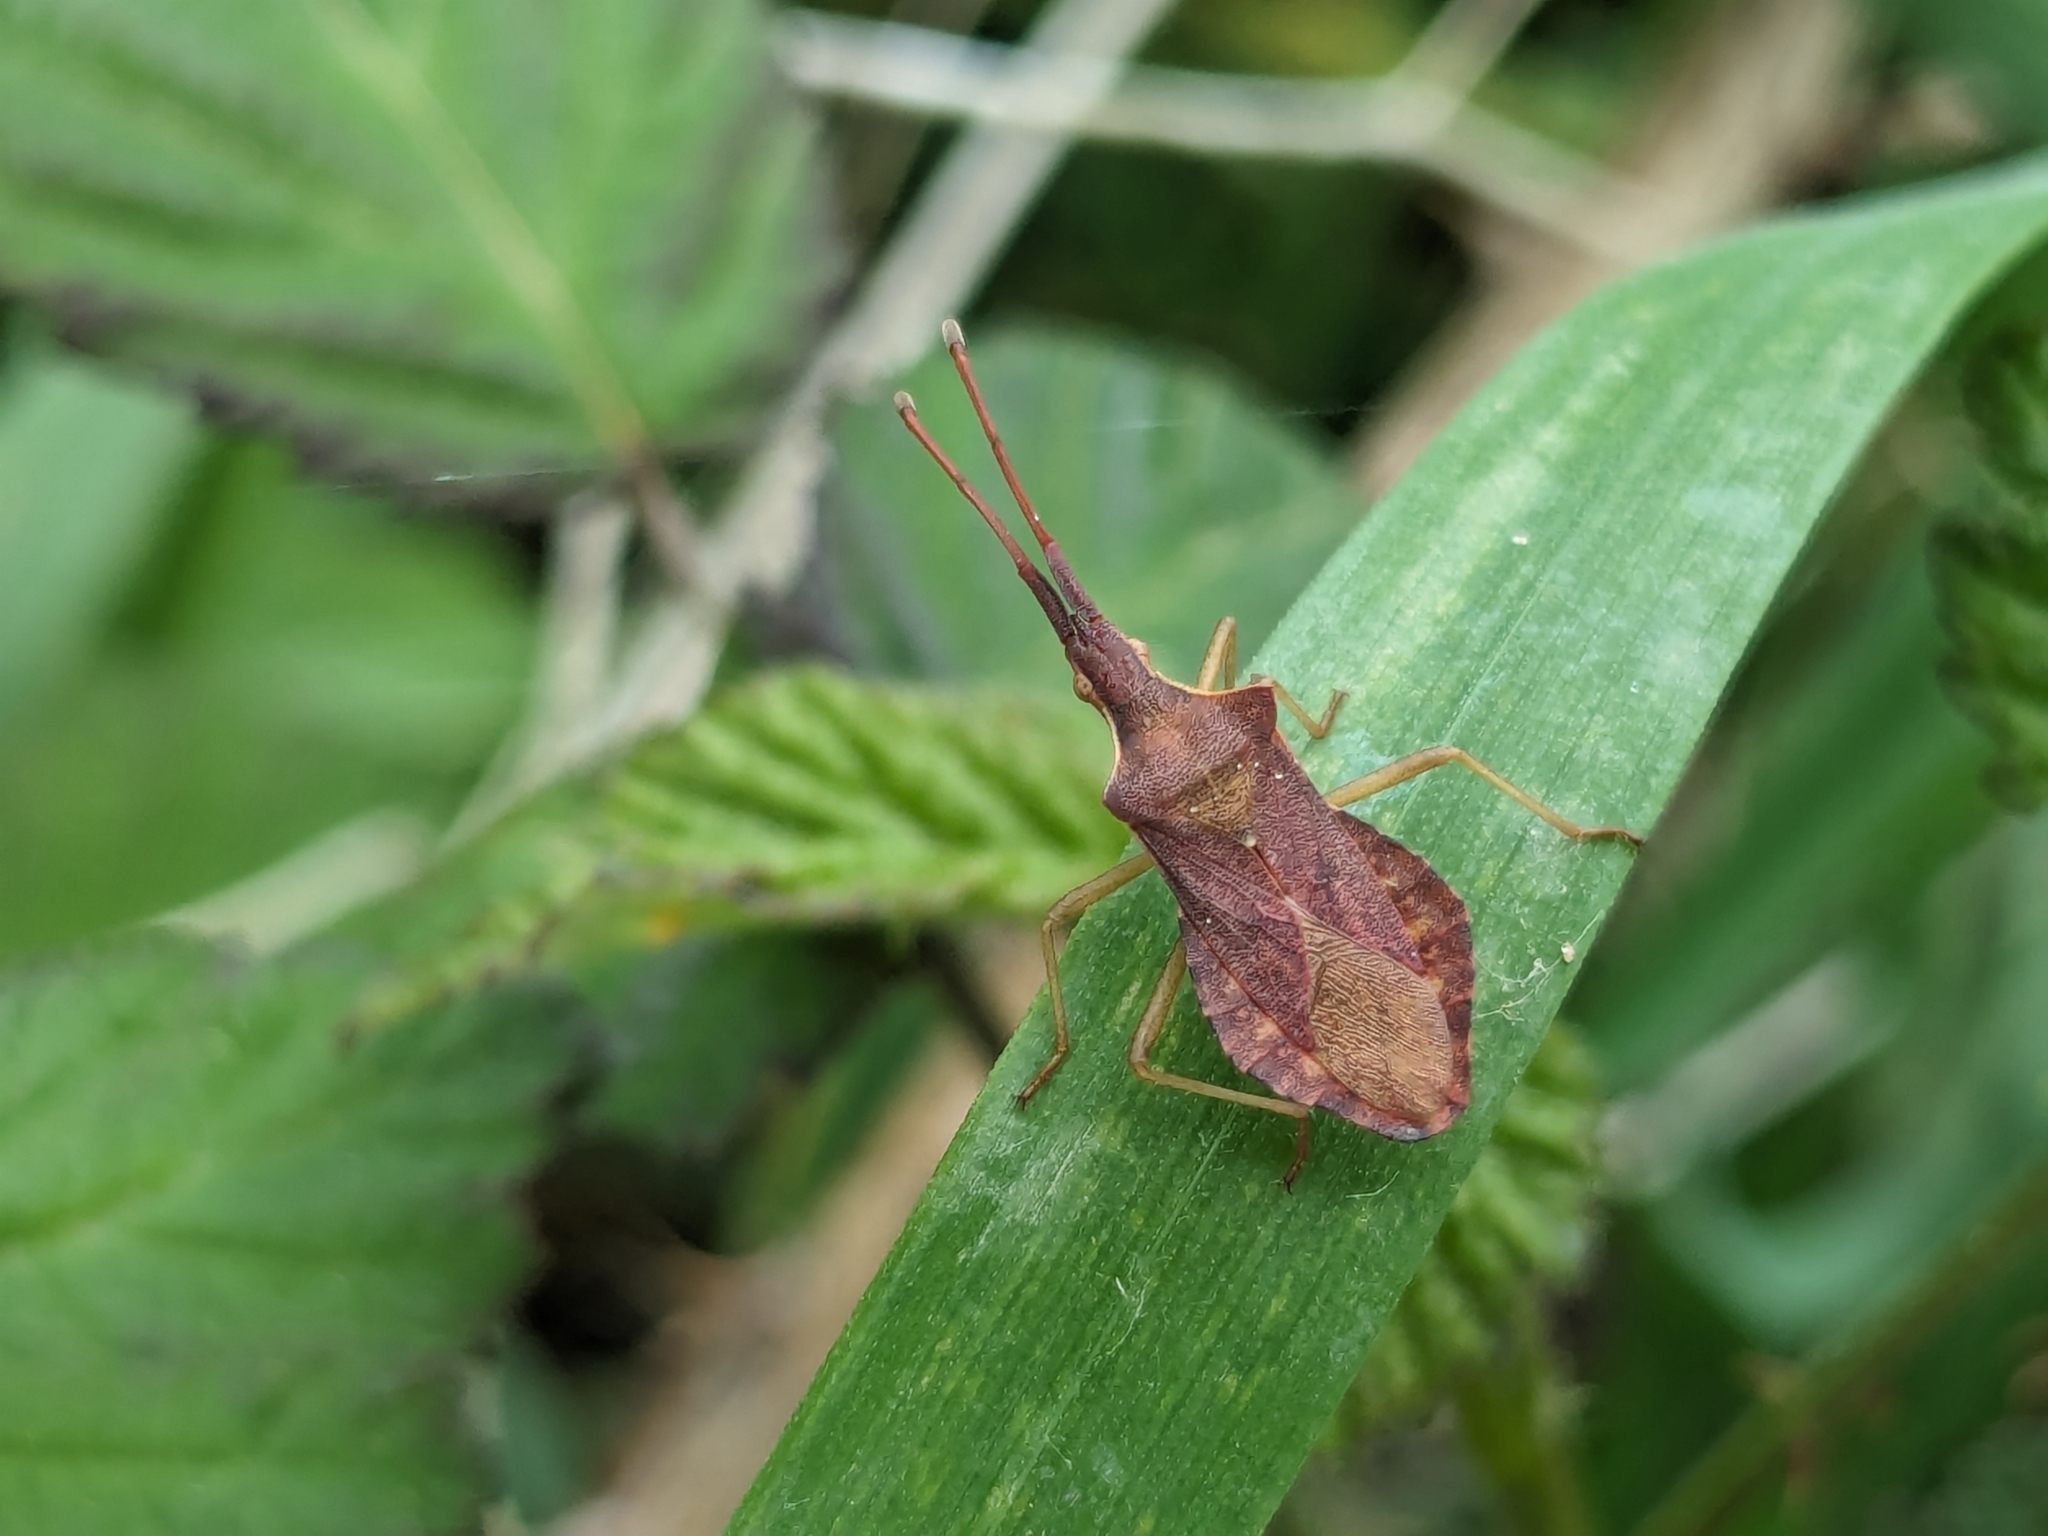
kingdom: Animalia
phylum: Arthropoda
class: Insecta
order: Hemiptera
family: Coreidae
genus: Haploprocta
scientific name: Haploprocta sulcicornis
